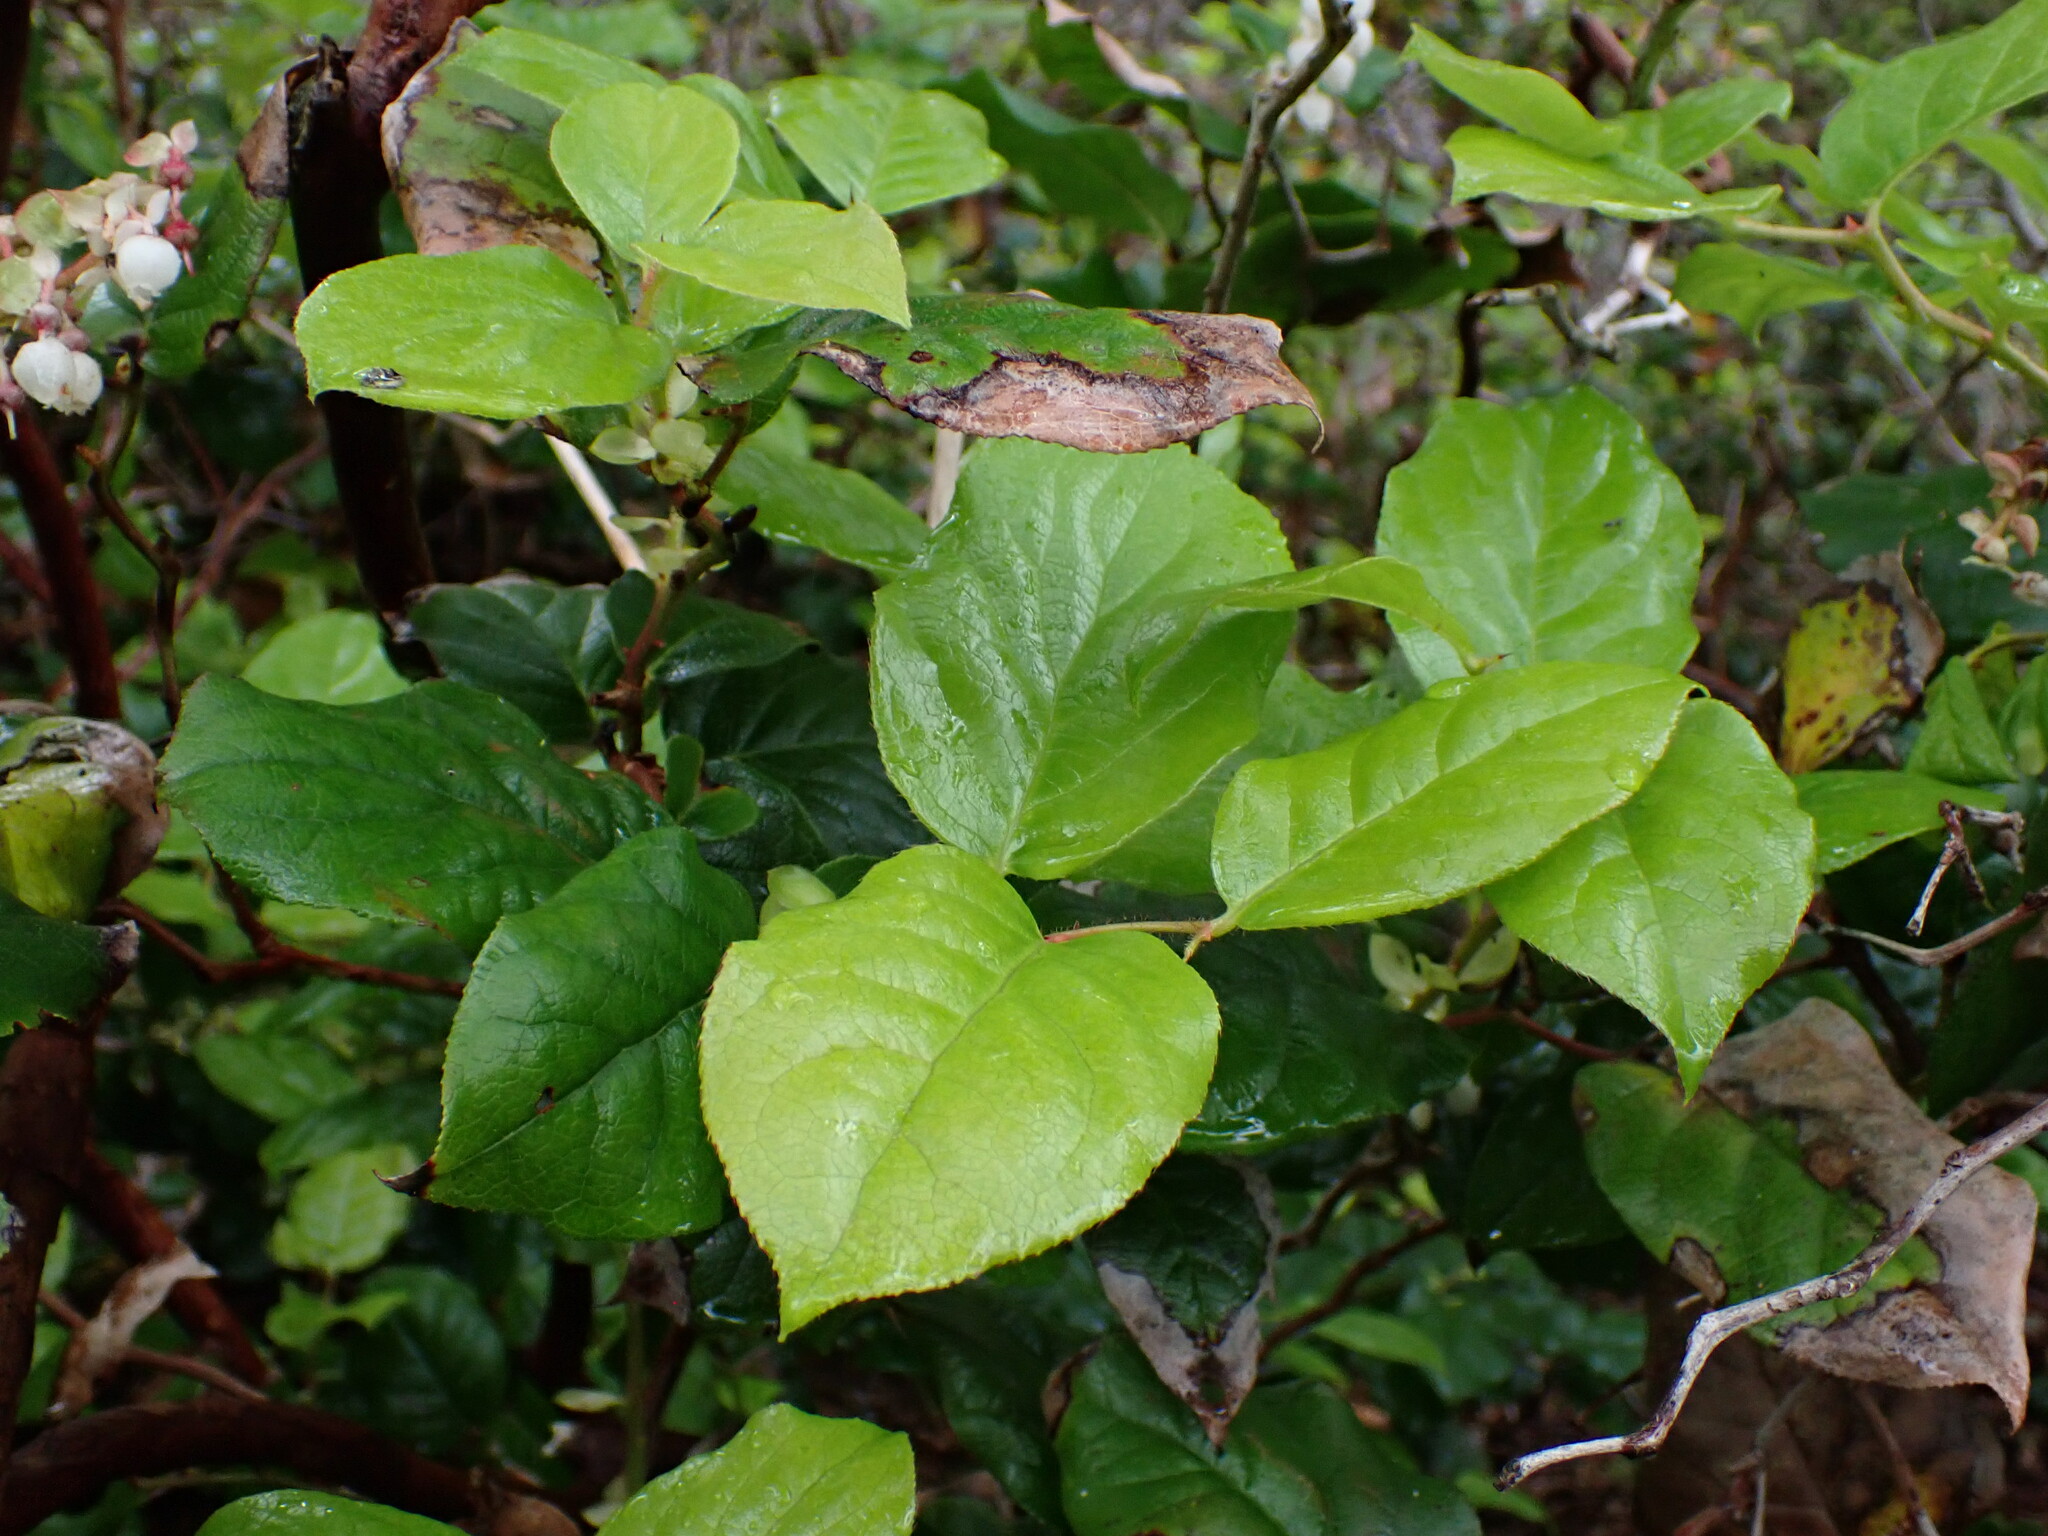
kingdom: Plantae
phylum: Tracheophyta
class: Magnoliopsida
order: Ericales
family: Ericaceae
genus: Gaultheria
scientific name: Gaultheria shallon
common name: Shallon
